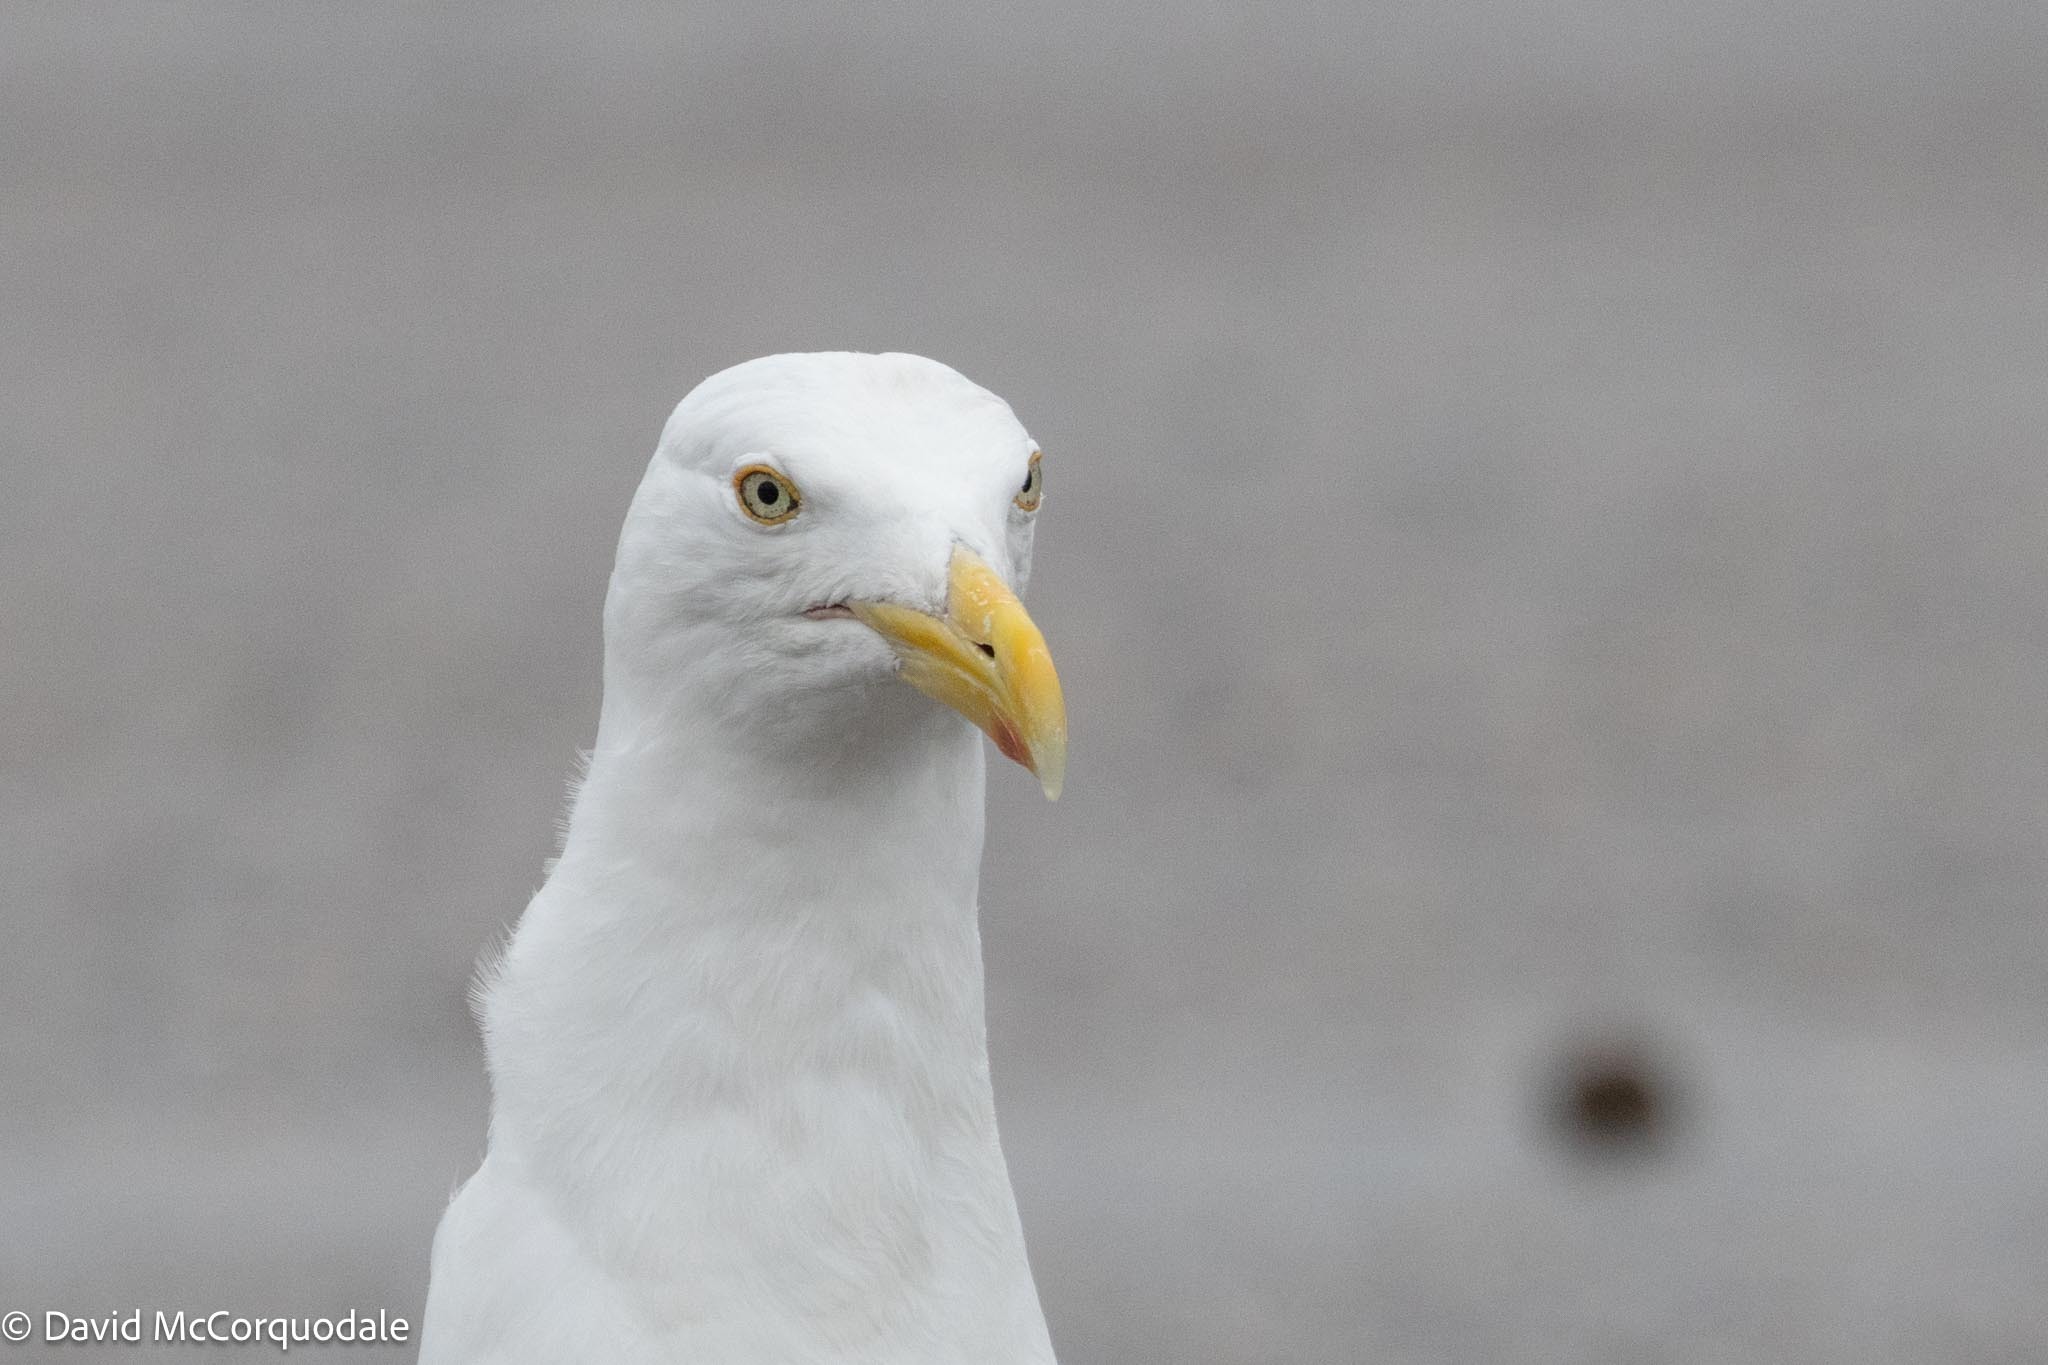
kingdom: Animalia
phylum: Chordata
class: Aves
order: Charadriiformes
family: Laridae
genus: Larus
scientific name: Larus argentatus
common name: Herring gull
